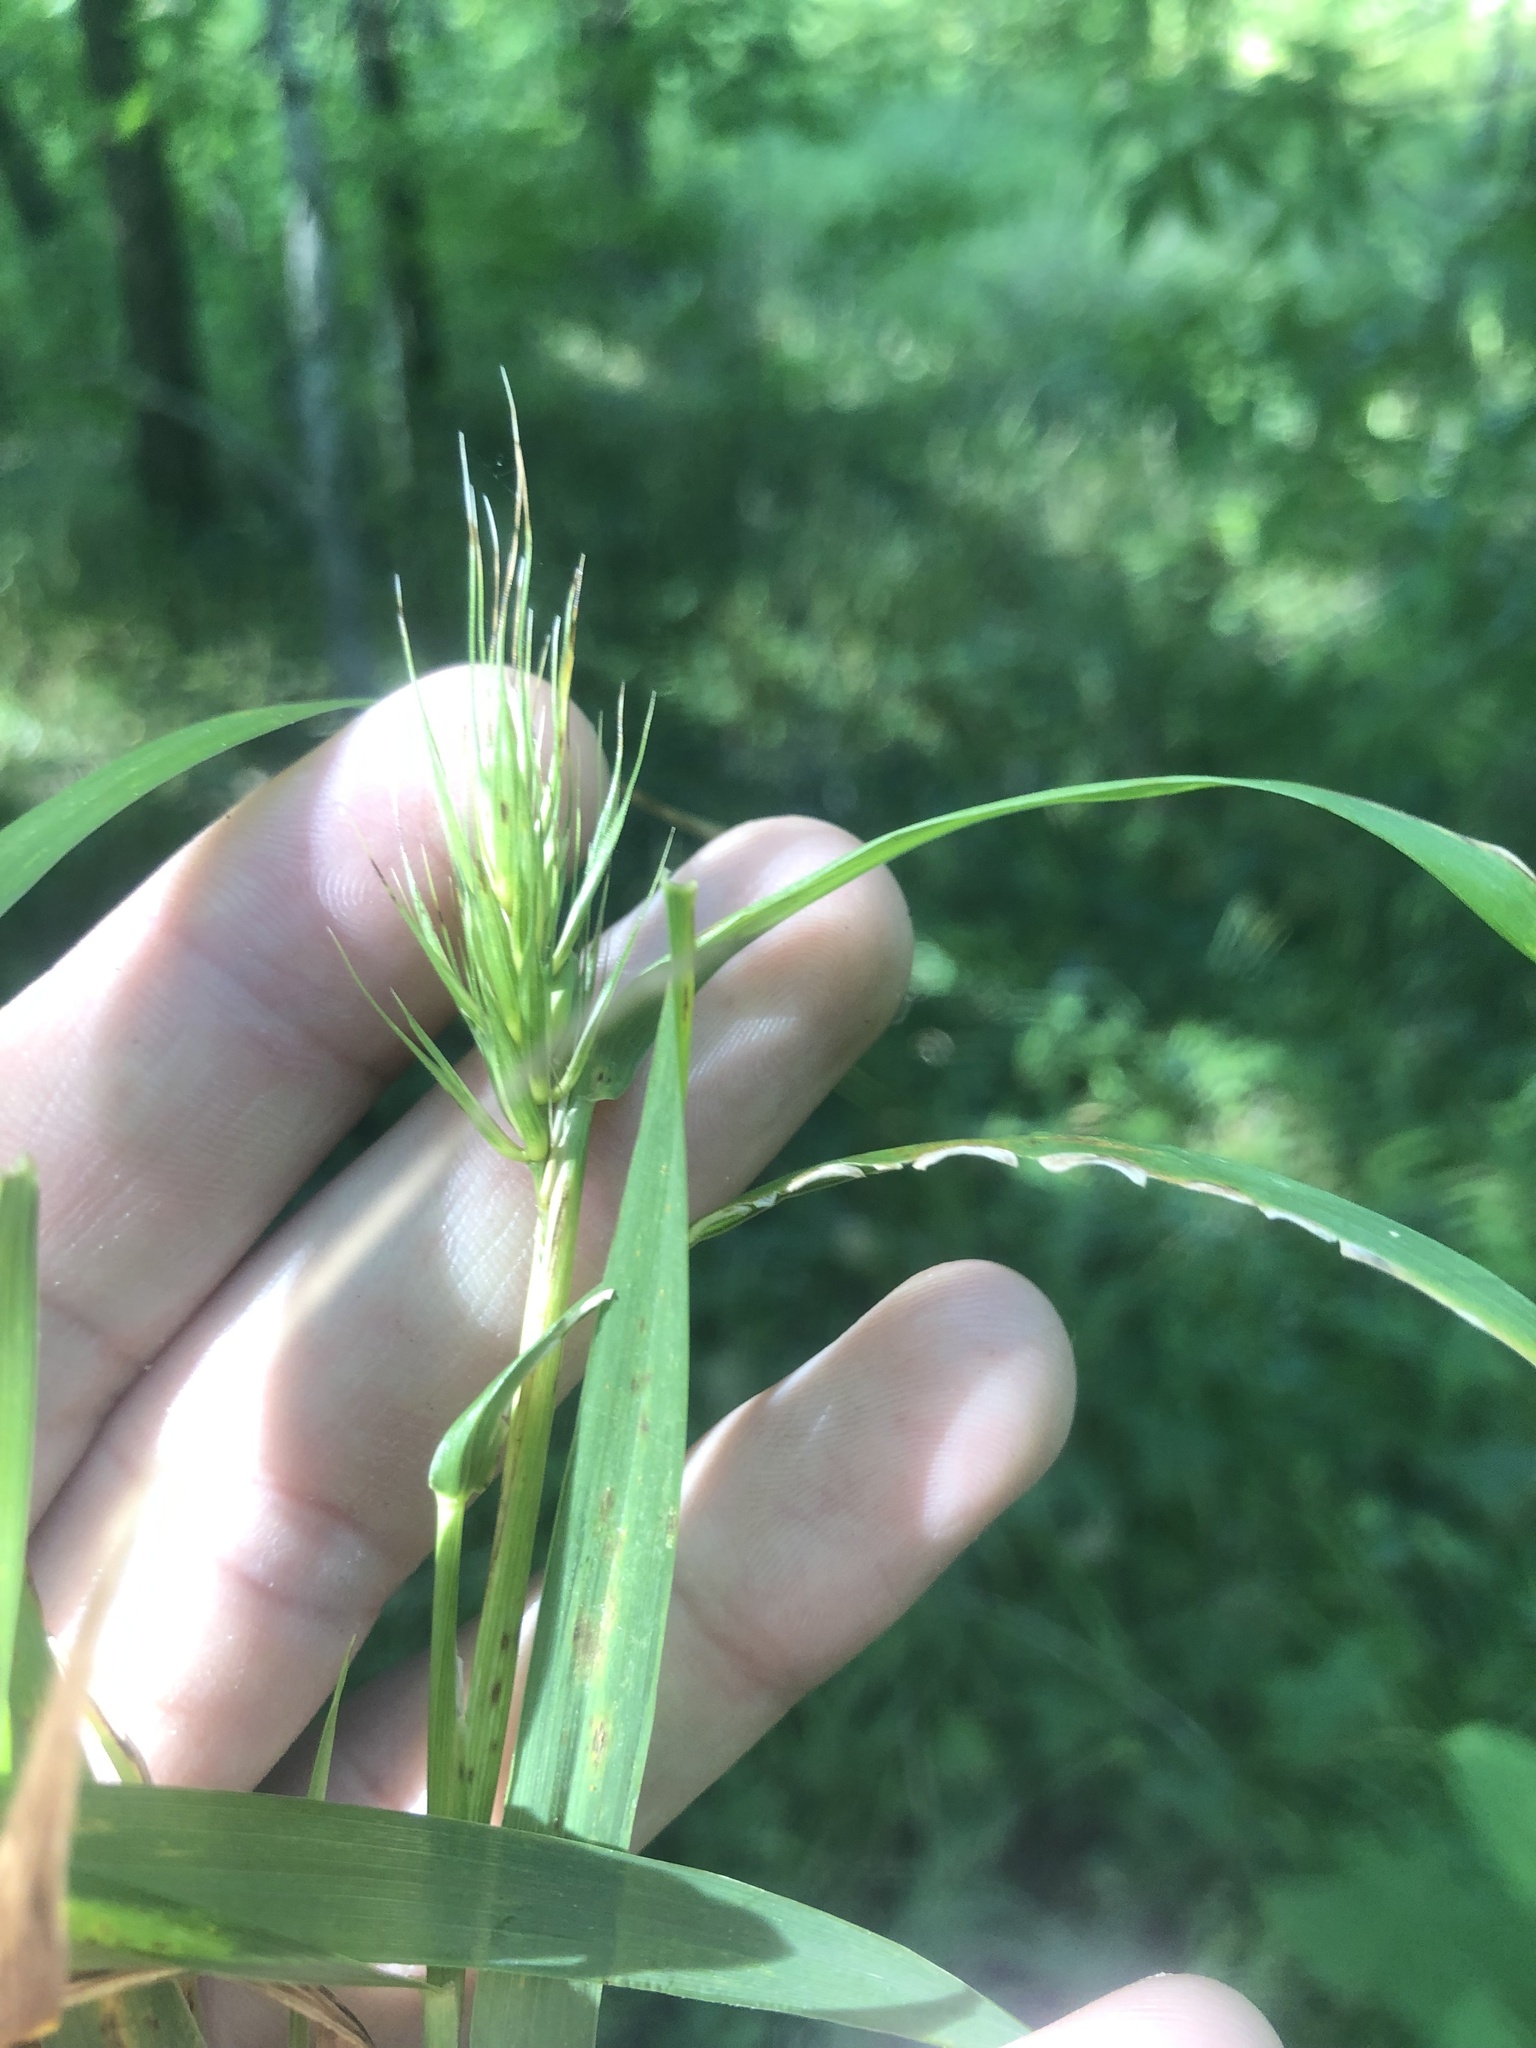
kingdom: Plantae
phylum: Tracheophyta
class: Liliopsida
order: Poales
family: Poaceae
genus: Elymus
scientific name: Elymus virginicus
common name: Common eastern wildrye
